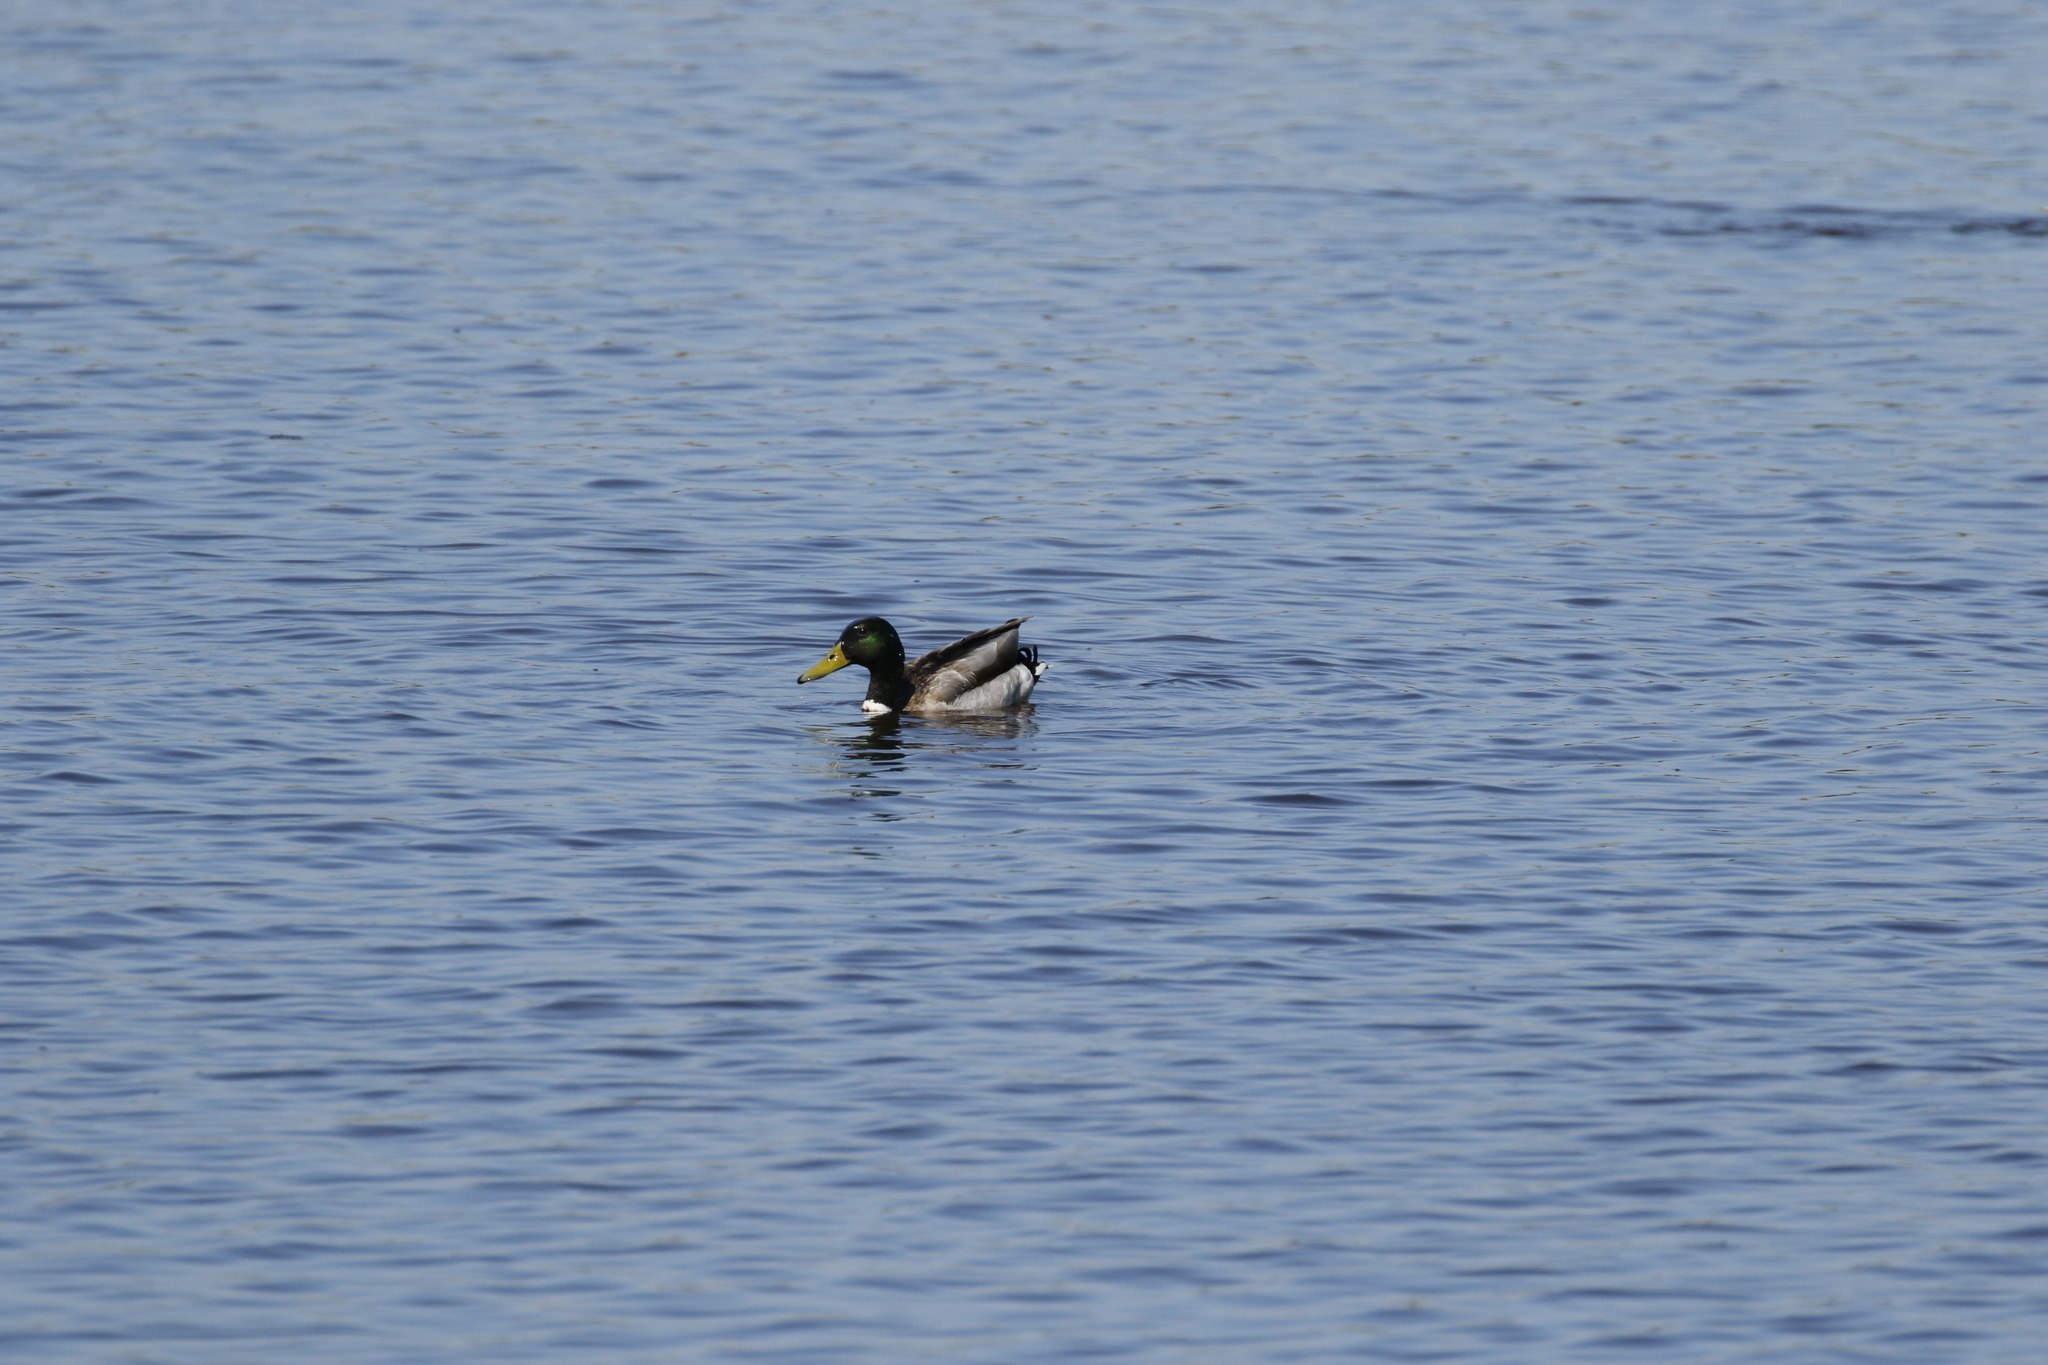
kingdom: Animalia
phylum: Chordata
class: Aves
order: Anseriformes
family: Anatidae
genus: Anas
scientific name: Anas platyrhynchos
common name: Mallard
